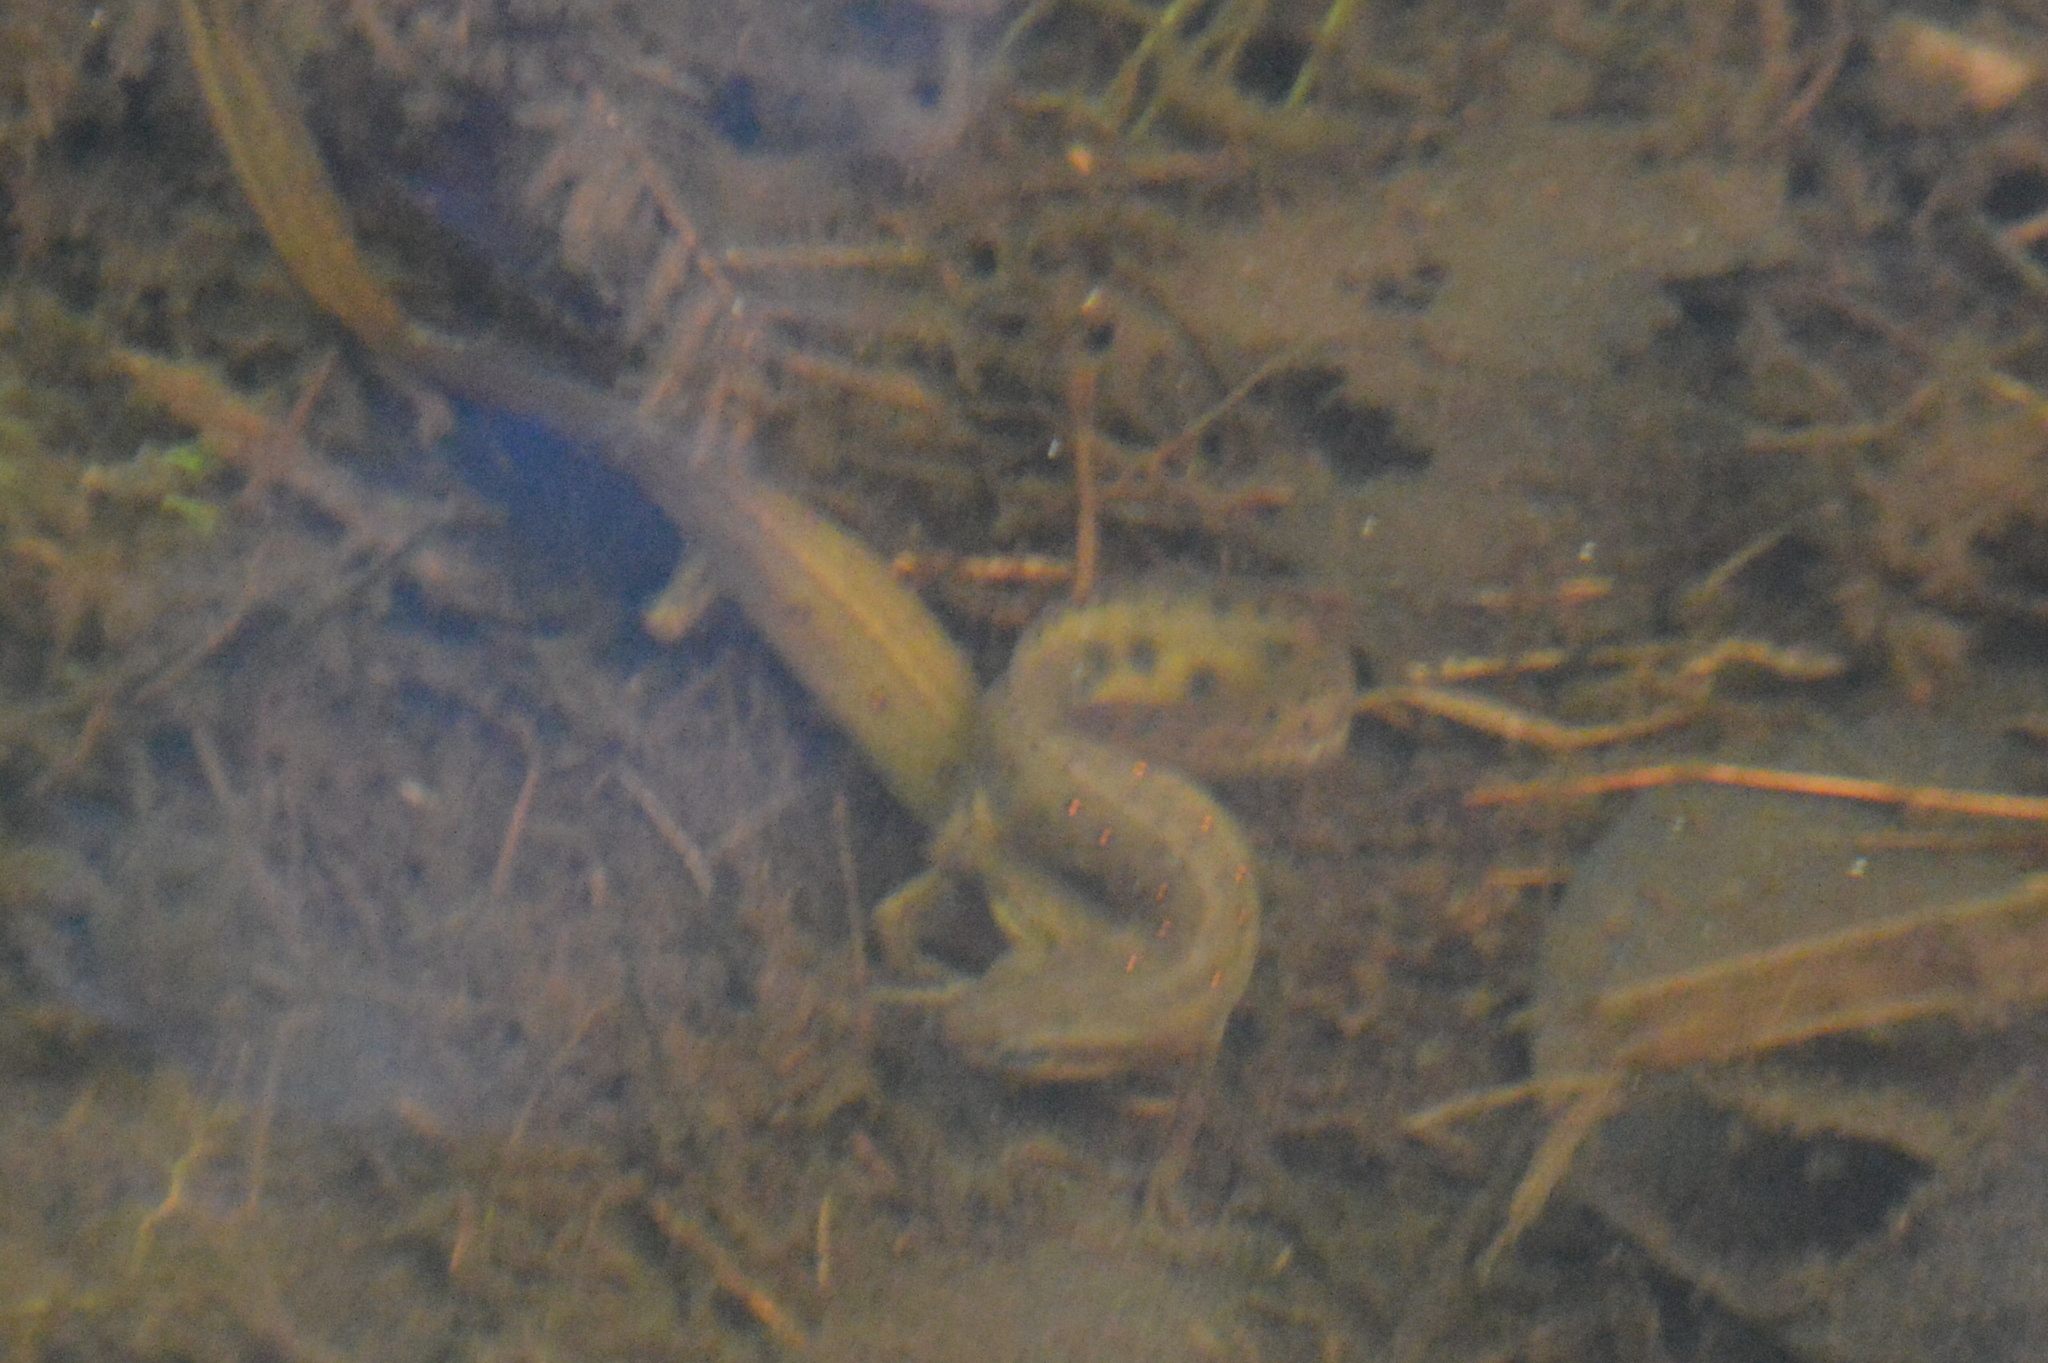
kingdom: Animalia
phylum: Chordata
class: Amphibia
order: Caudata
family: Salamandridae
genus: Notophthalmus
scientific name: Notophthalmus viridescens
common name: Eastern newt
